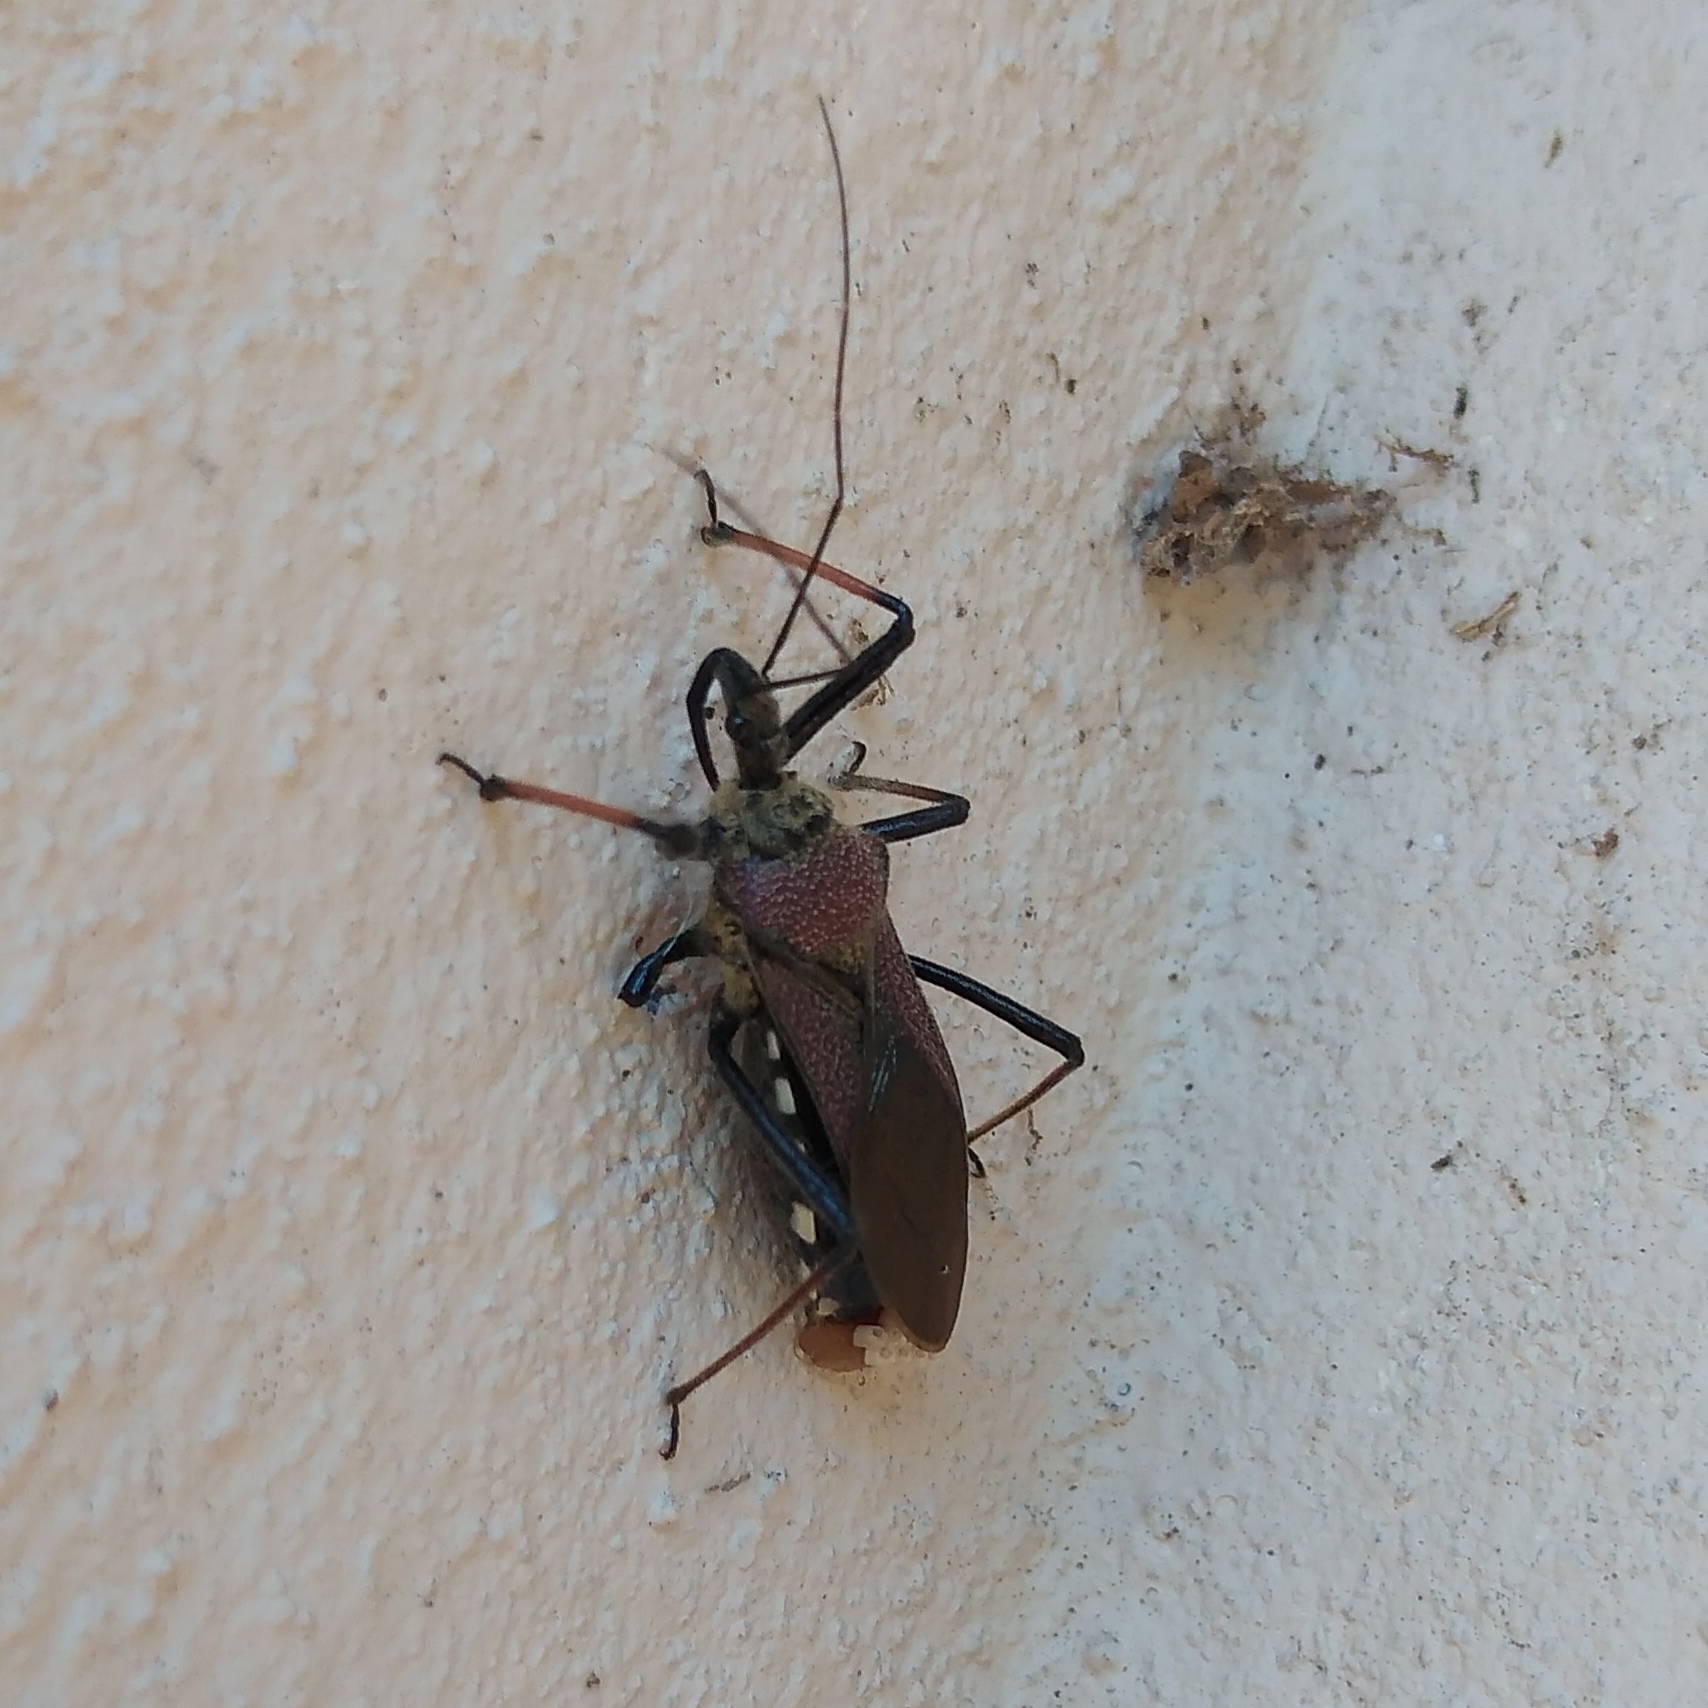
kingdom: Animalia
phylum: Arthropoda
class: Insecta
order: Hemiptera
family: Reduviidae
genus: Rhynocoris
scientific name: Rhynocoris erythrocnemis
